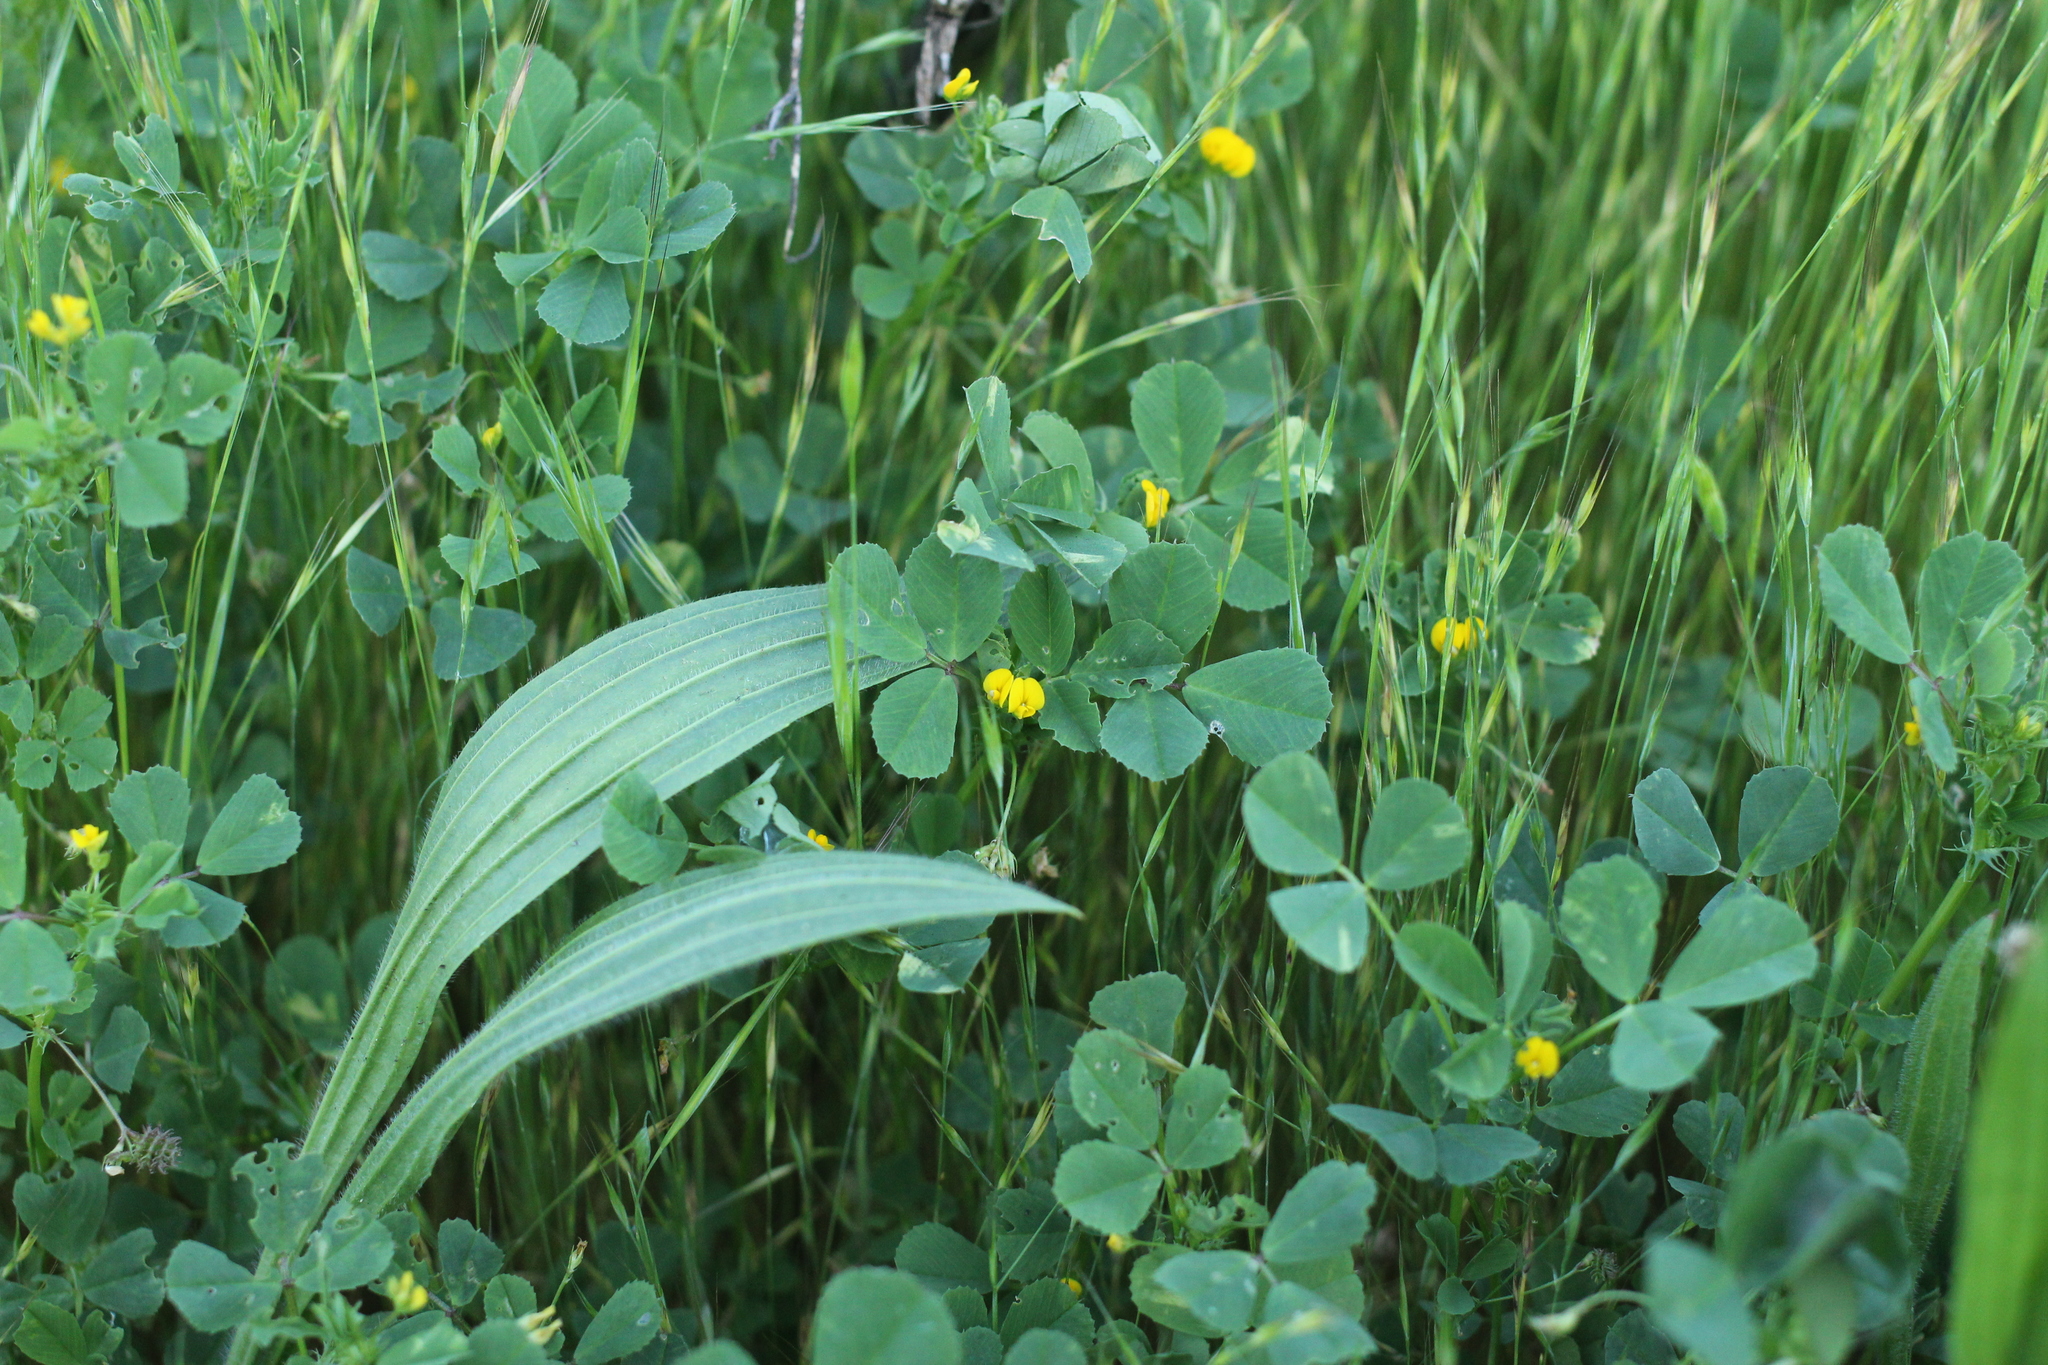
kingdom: Plantae
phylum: Tracheophyta
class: Magnoliopsida
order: Fabales
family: Fabaceae
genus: Medicago
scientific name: Medicago polymorpha
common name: Burclover
